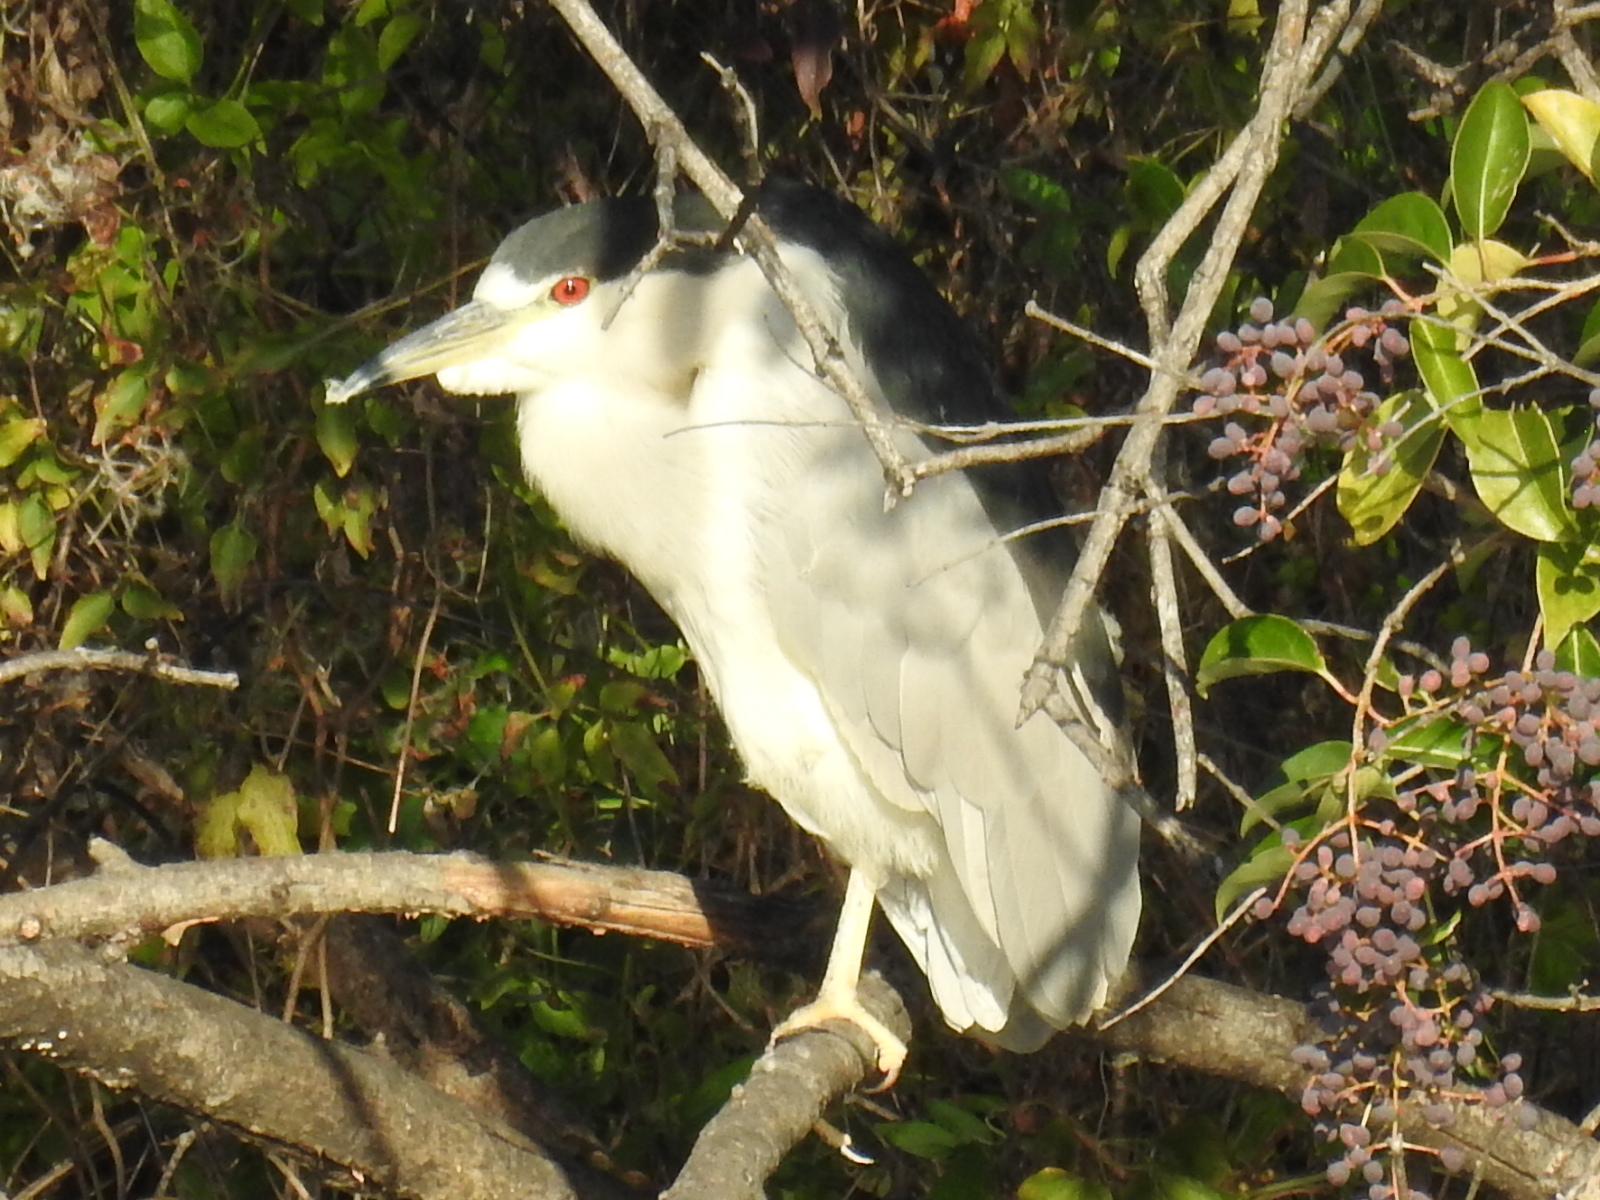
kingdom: Animalia
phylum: Chordata
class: Aves
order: Pelecaniformes
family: Ardeidae
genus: Nycticorax
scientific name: Nycticorax nycticorax
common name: Black-crowned night heron
